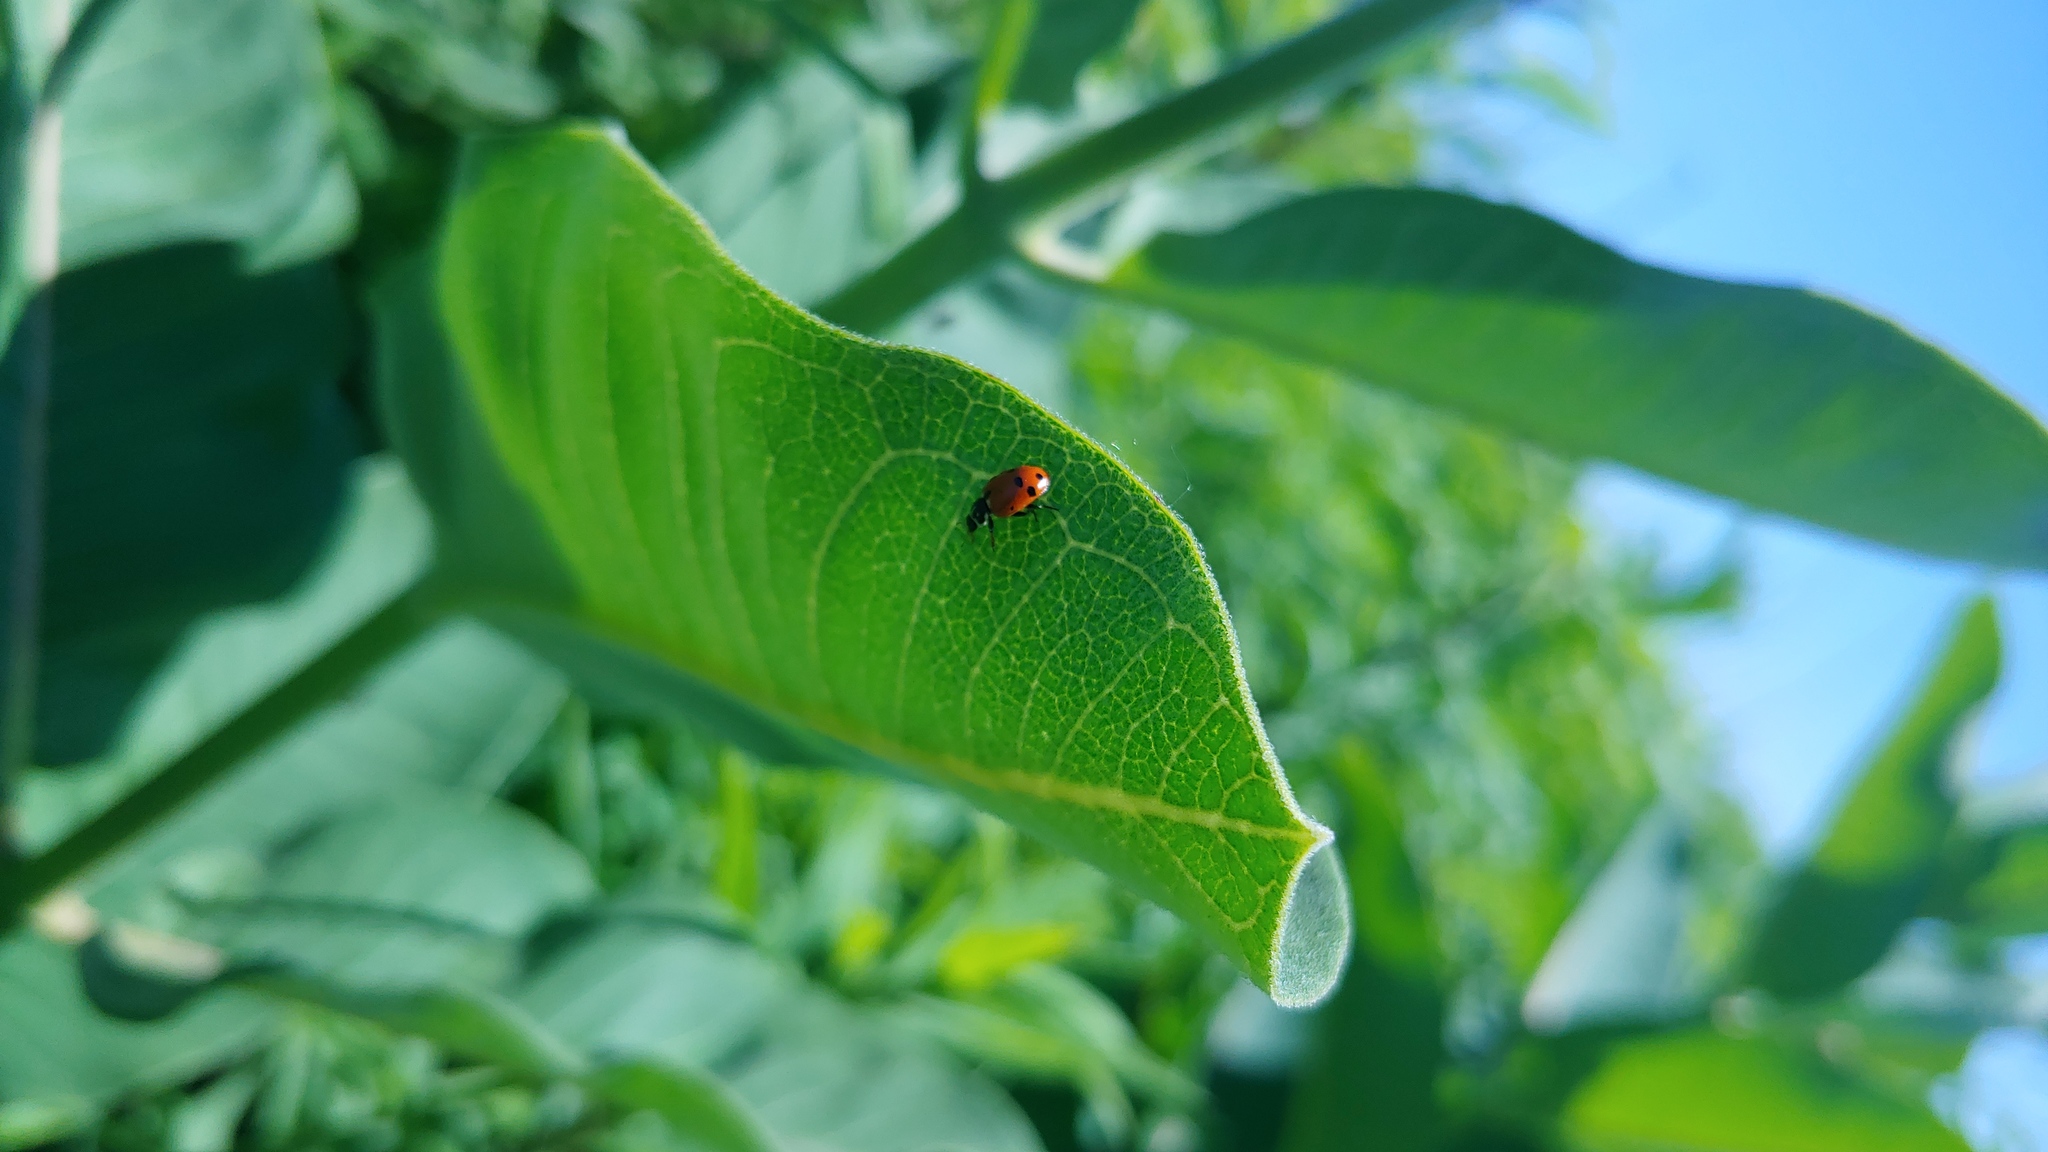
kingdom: Animalia
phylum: Arthropoda
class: Insecta
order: Coleoptera
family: Coccinellidae
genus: Hippodamia
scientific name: Hippodamia variegata
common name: Ladybird beetle
